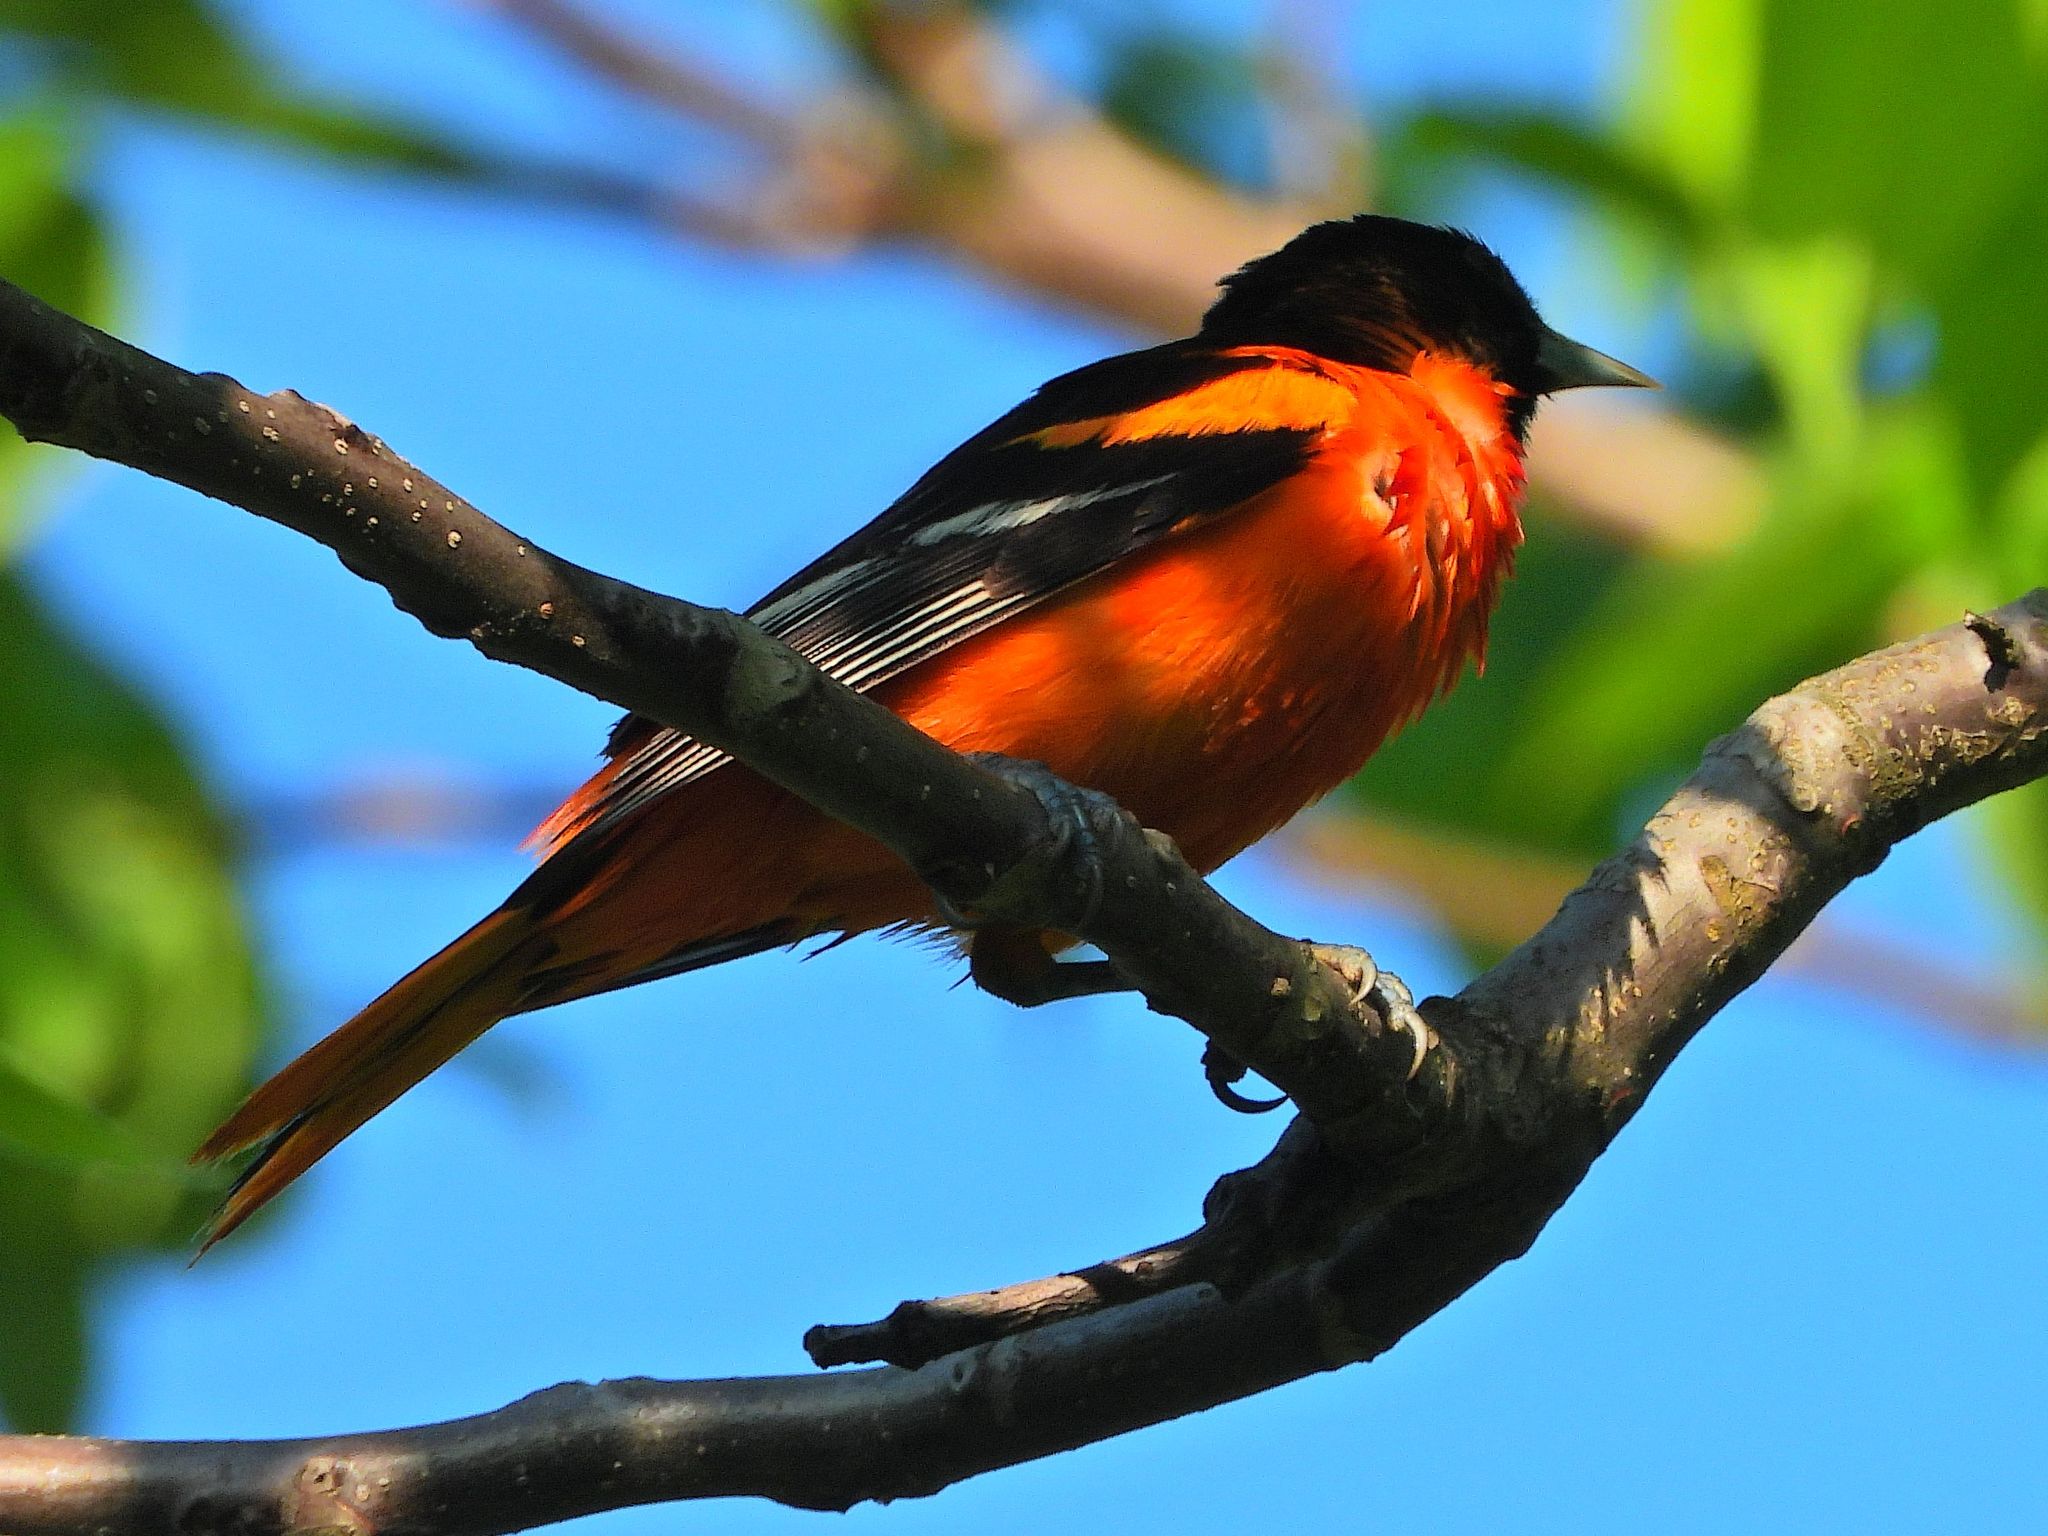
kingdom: Animalia
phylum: Chordata
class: Aves
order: Passeriformes
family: Icteridae
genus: Icterus
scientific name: Icterus galbula
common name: Baltimore oriole
